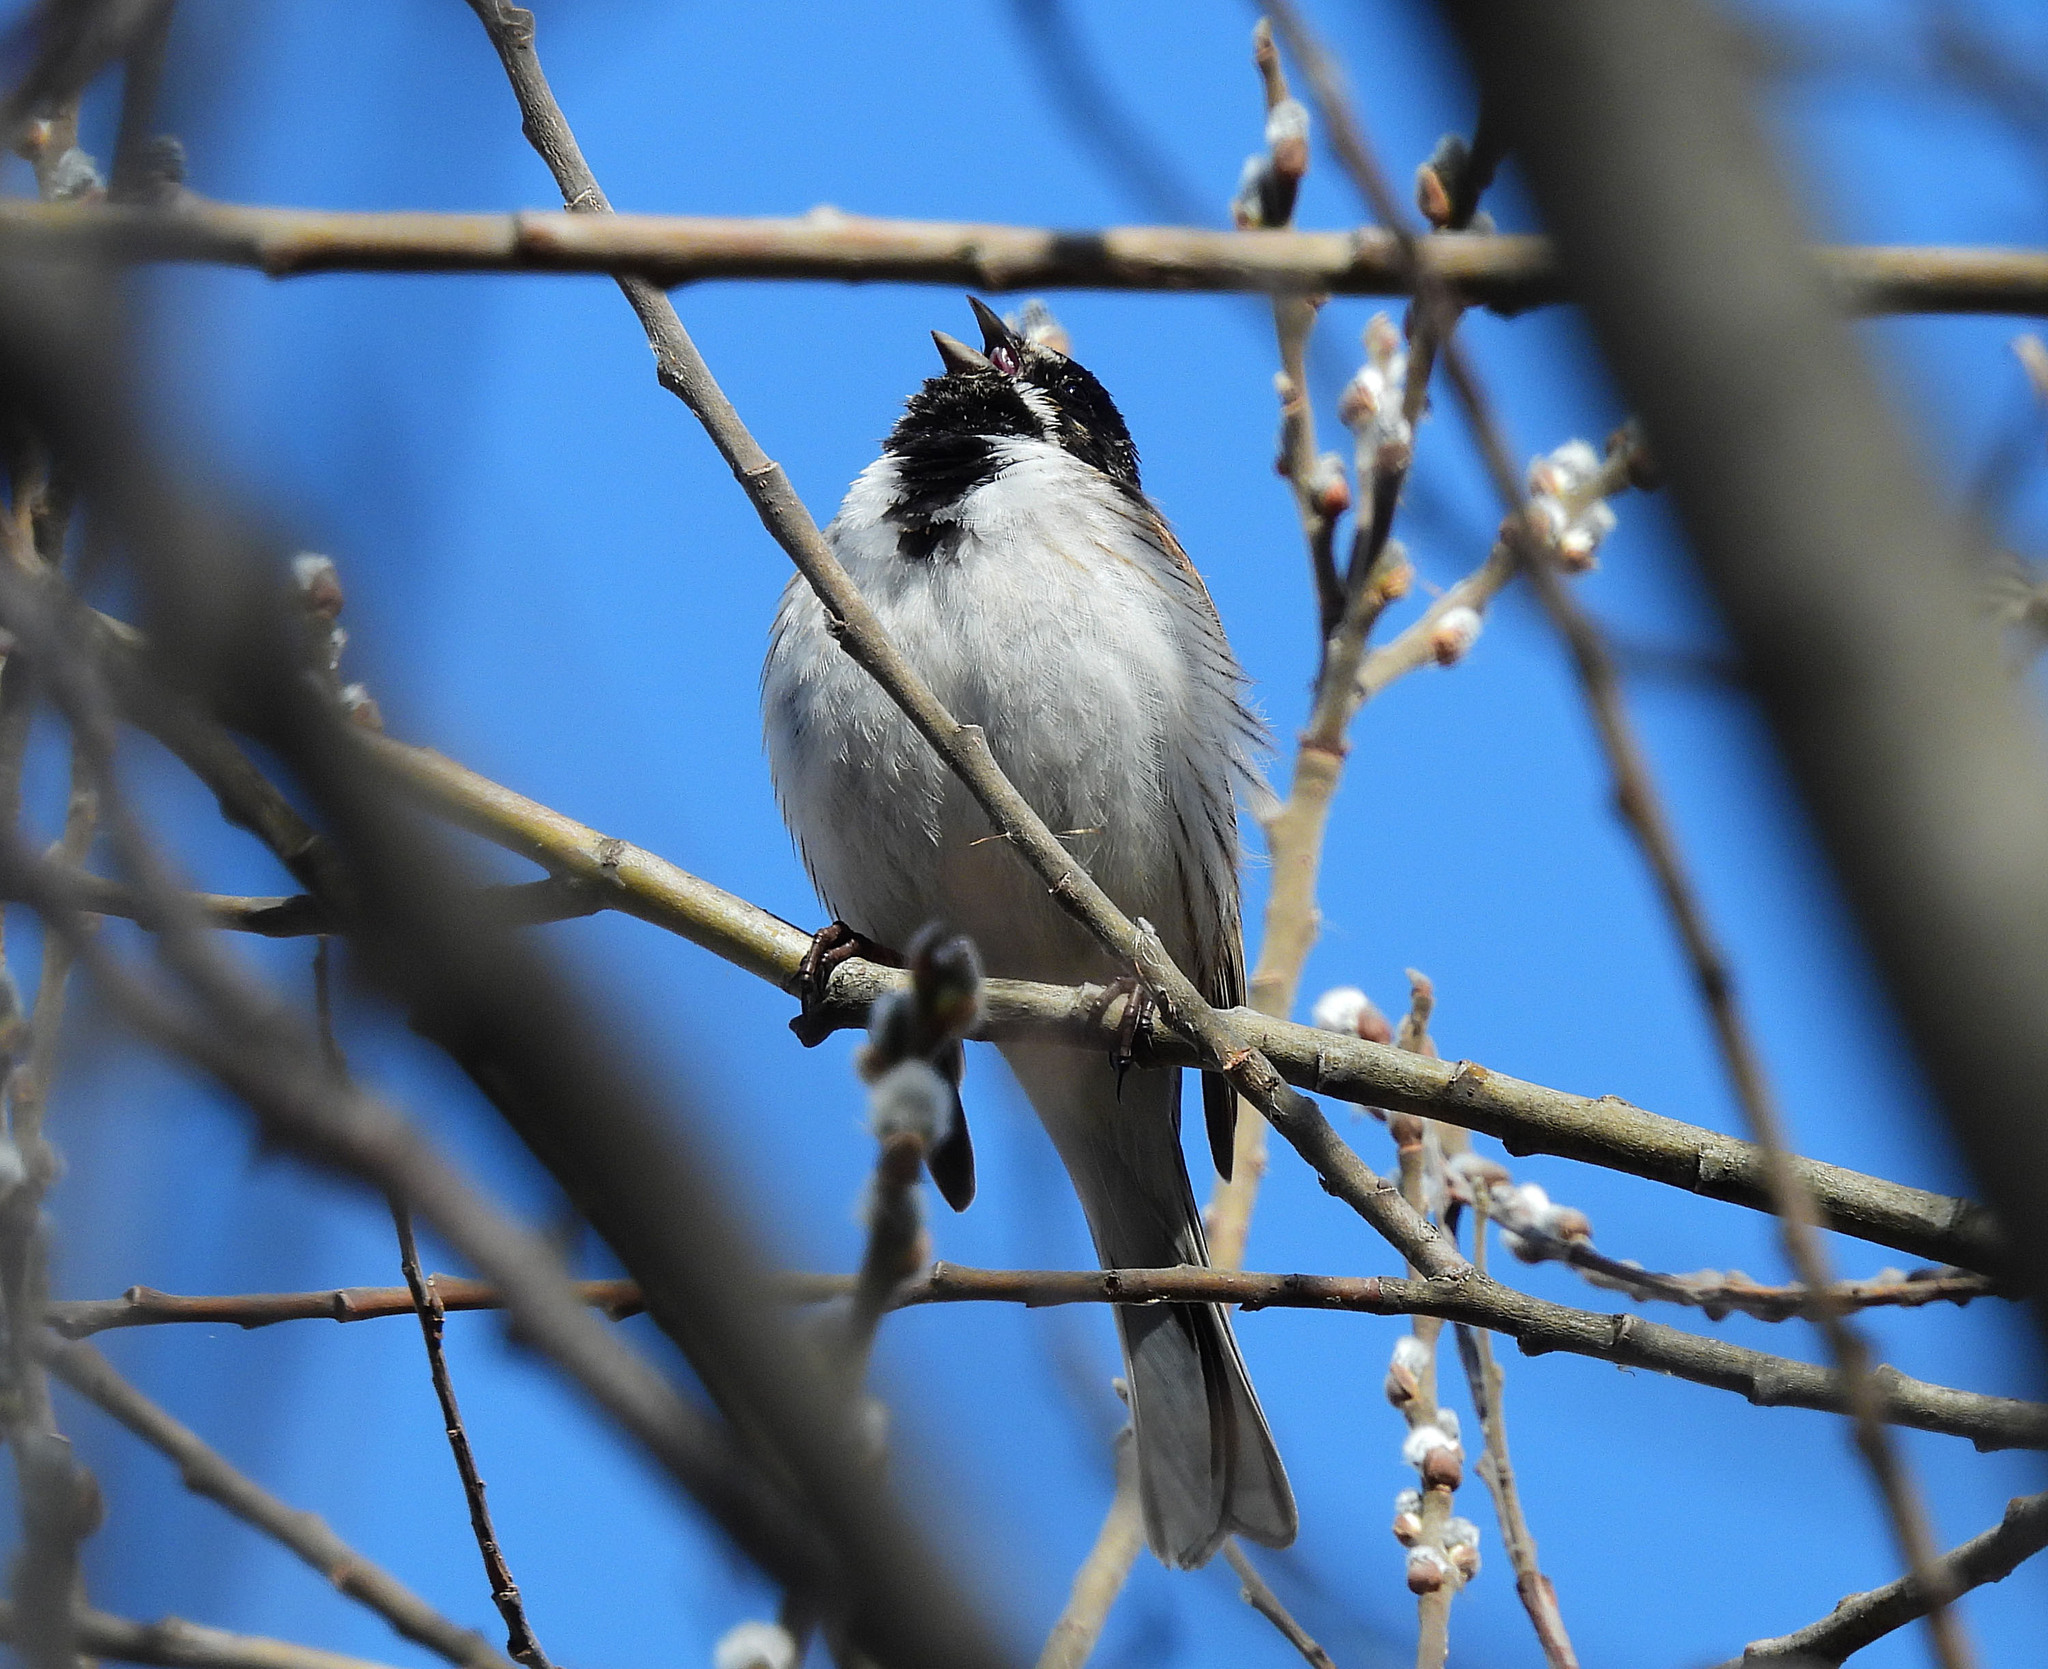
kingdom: Animalia
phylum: Chordata
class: Aves
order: Passeriformes
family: Emberizidae
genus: Emberiza
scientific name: Emberiza schoeniclus
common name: Reed bunting
